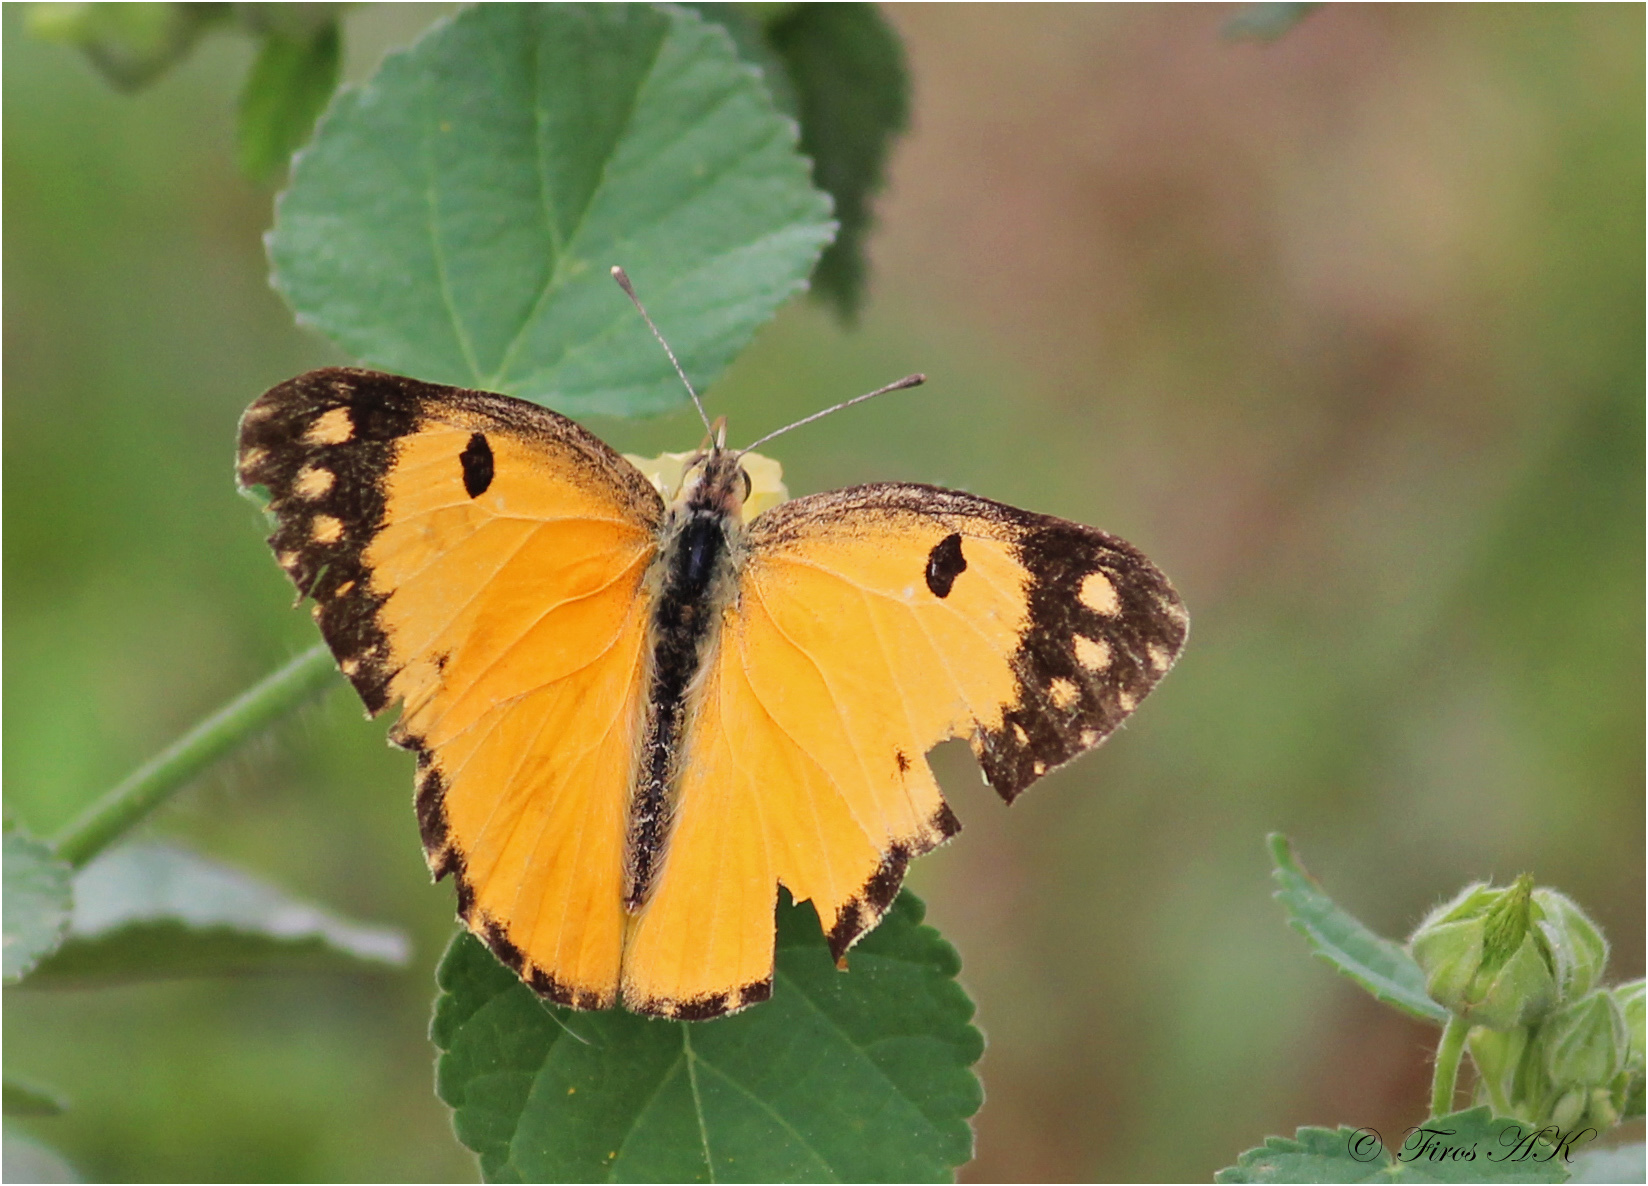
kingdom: Animalia
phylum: Arthropoda
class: Insecta
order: Lepidoptera
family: Pieridae
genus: Colotis
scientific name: Colotis fausta
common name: Large salmon arab
